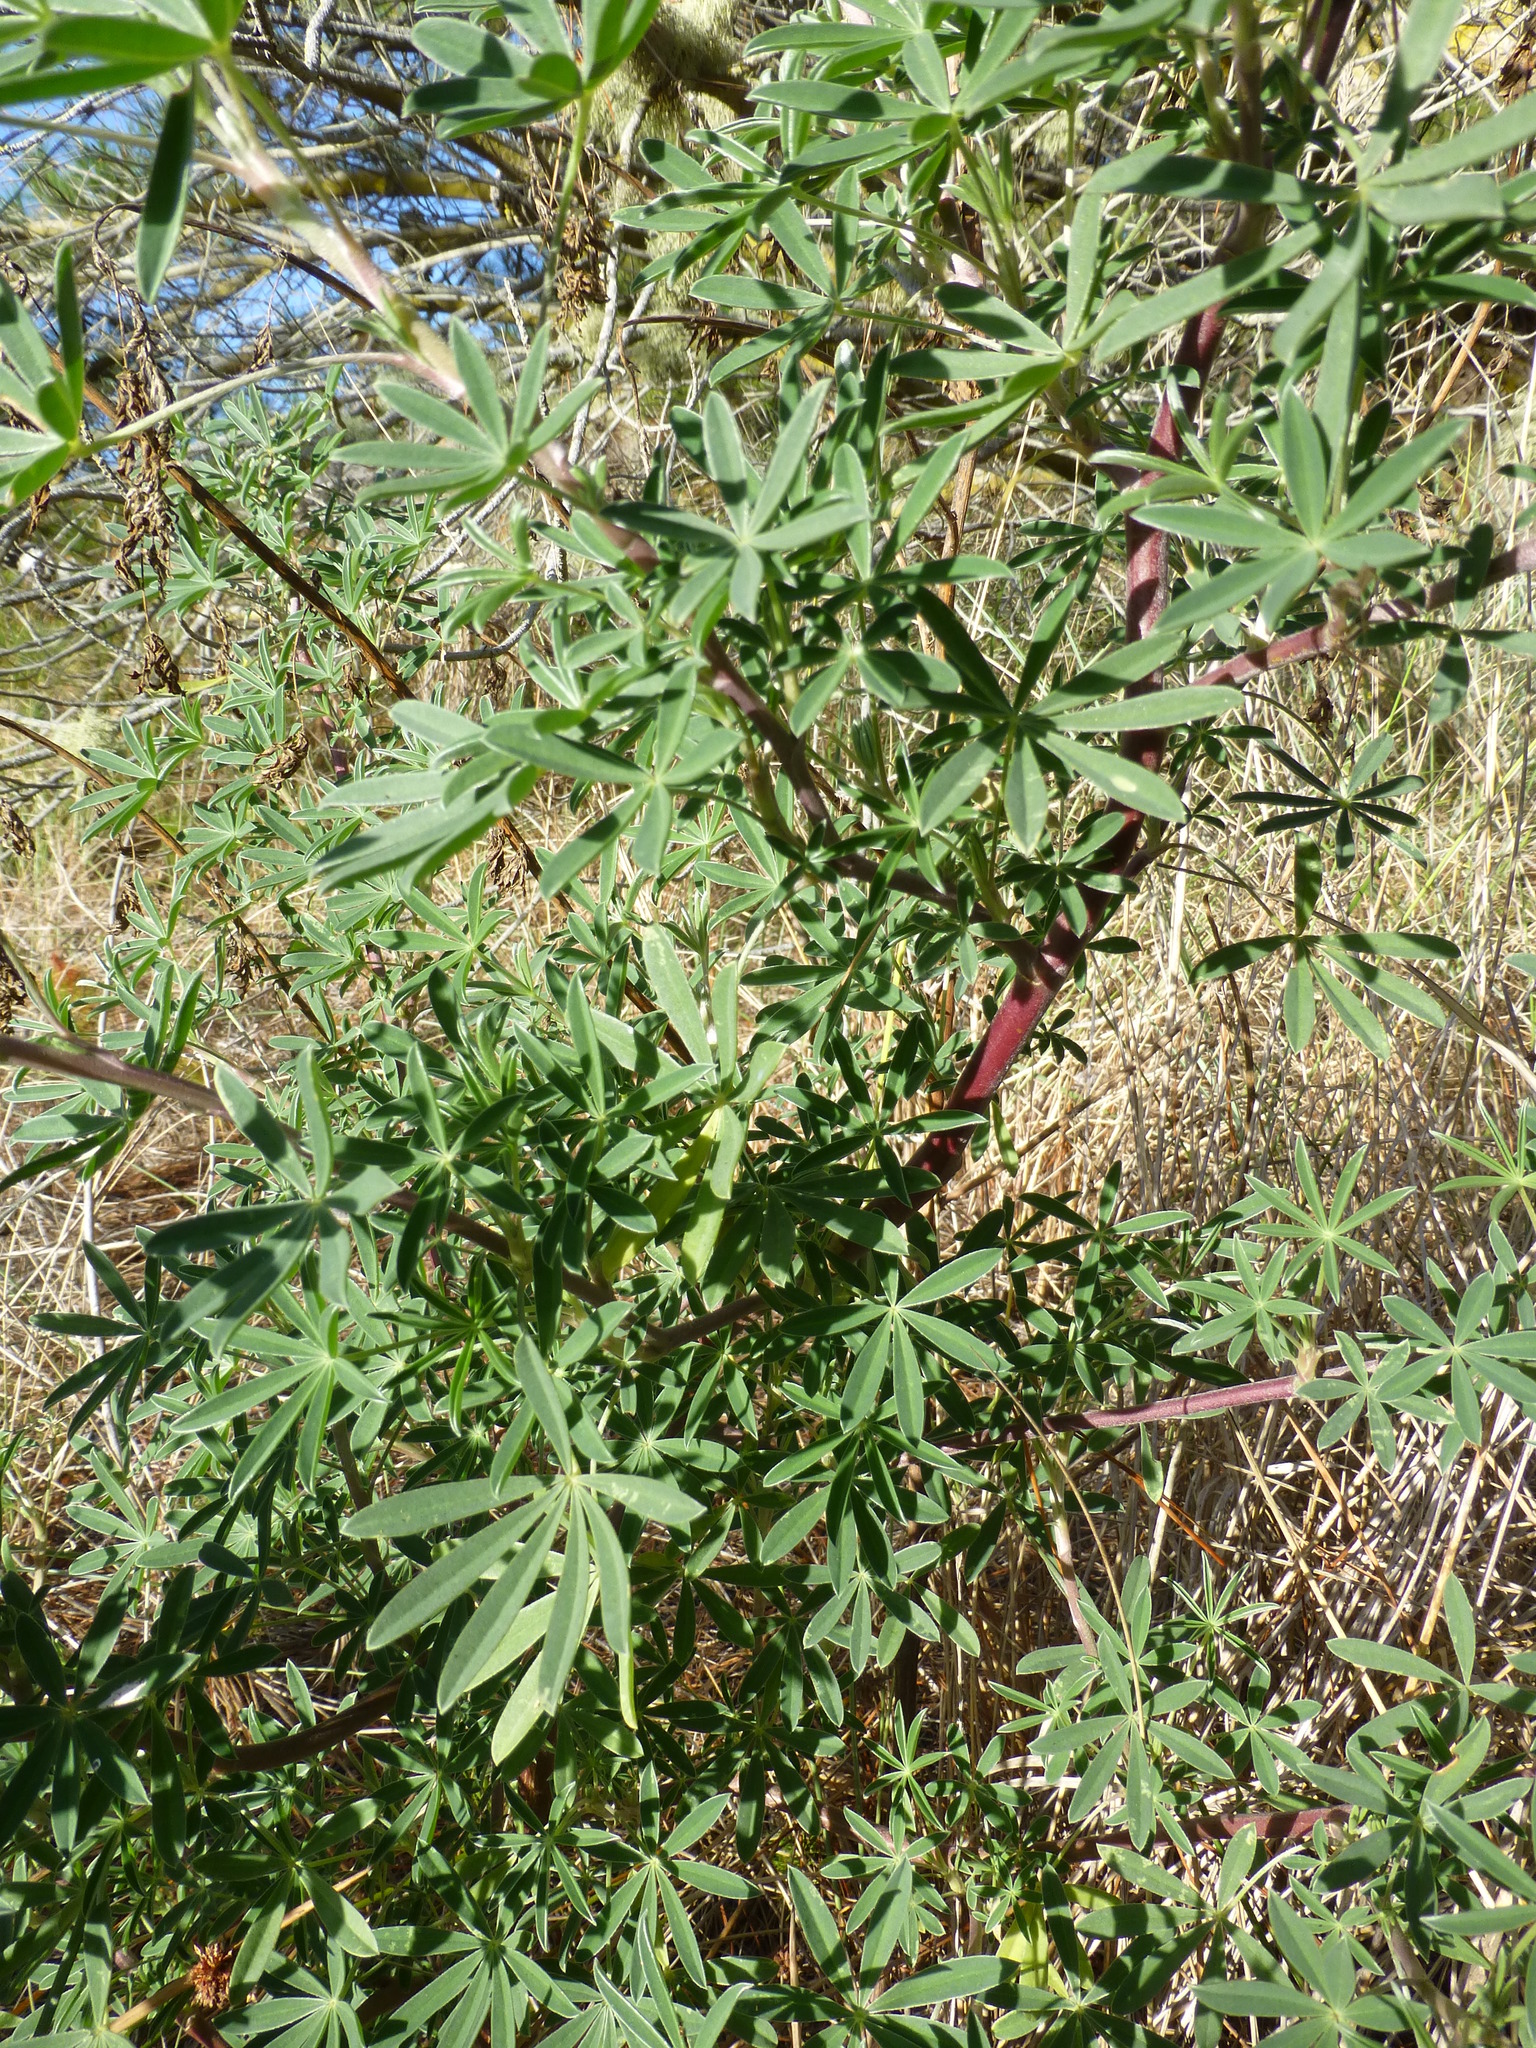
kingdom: Plantae
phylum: Tracheophyta
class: Magnoliopsida
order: Fabales
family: Fabaceae
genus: Lupinus
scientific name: Lupinus arboreus
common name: Yellow bush lupine
